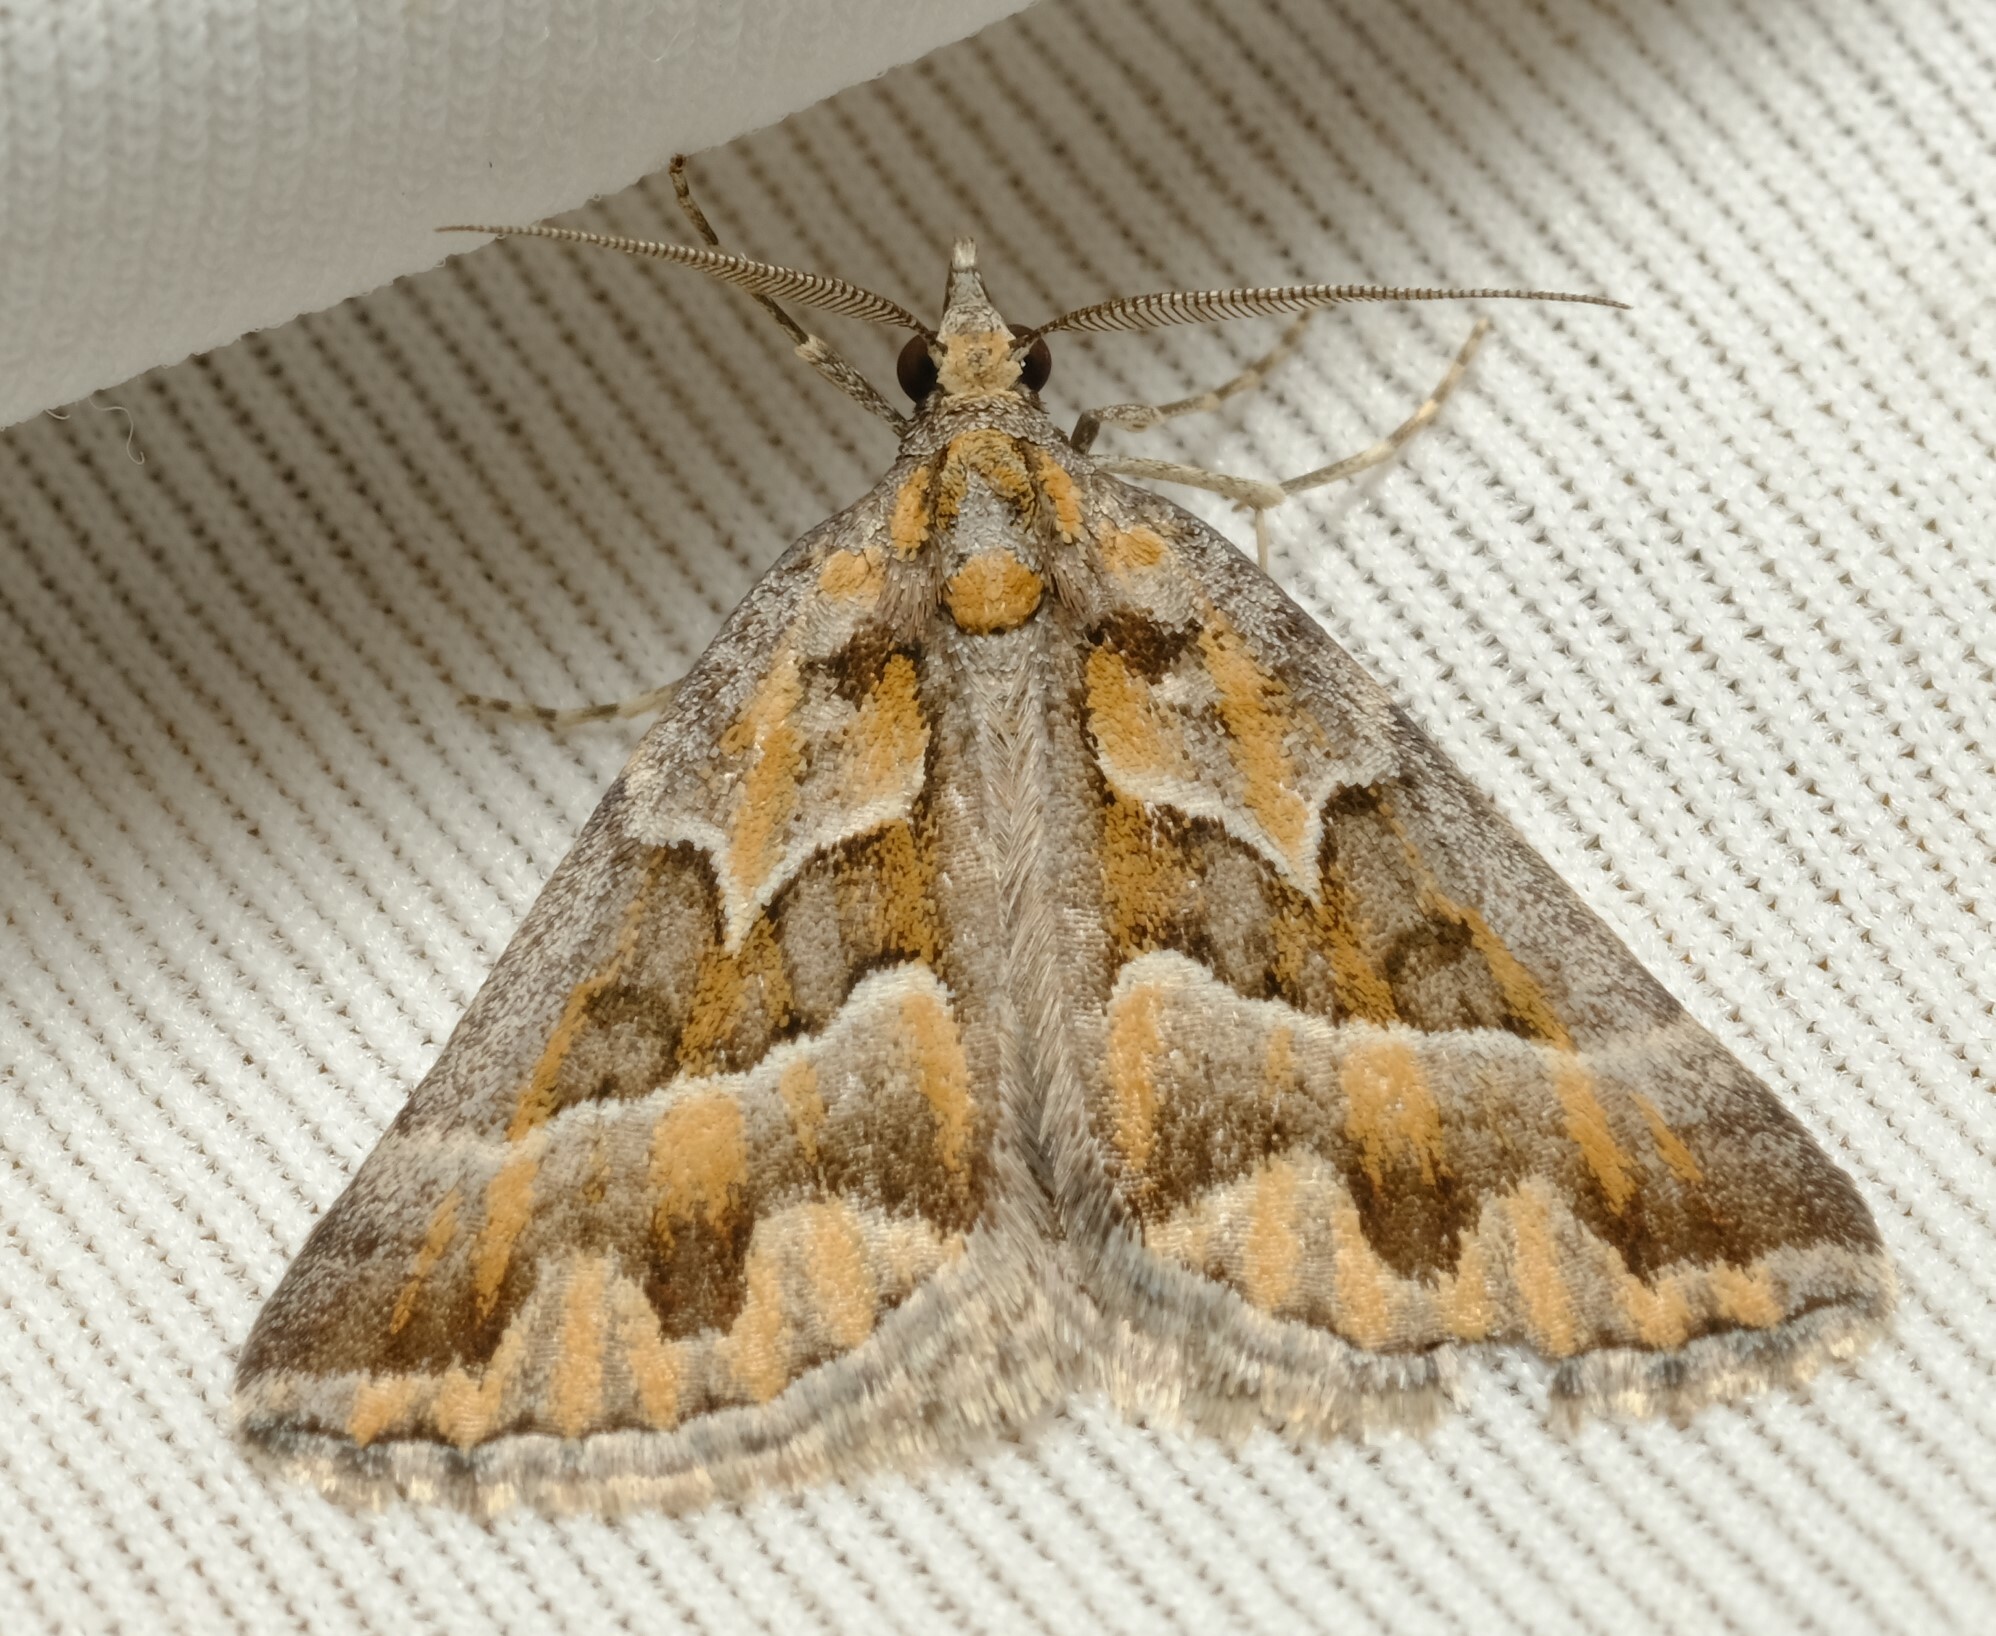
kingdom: Animalia
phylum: Arthropoda
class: Insecta
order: Lepidoptera
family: Geometridae
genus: Dichromodes
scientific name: Dichromodes poecilotis
